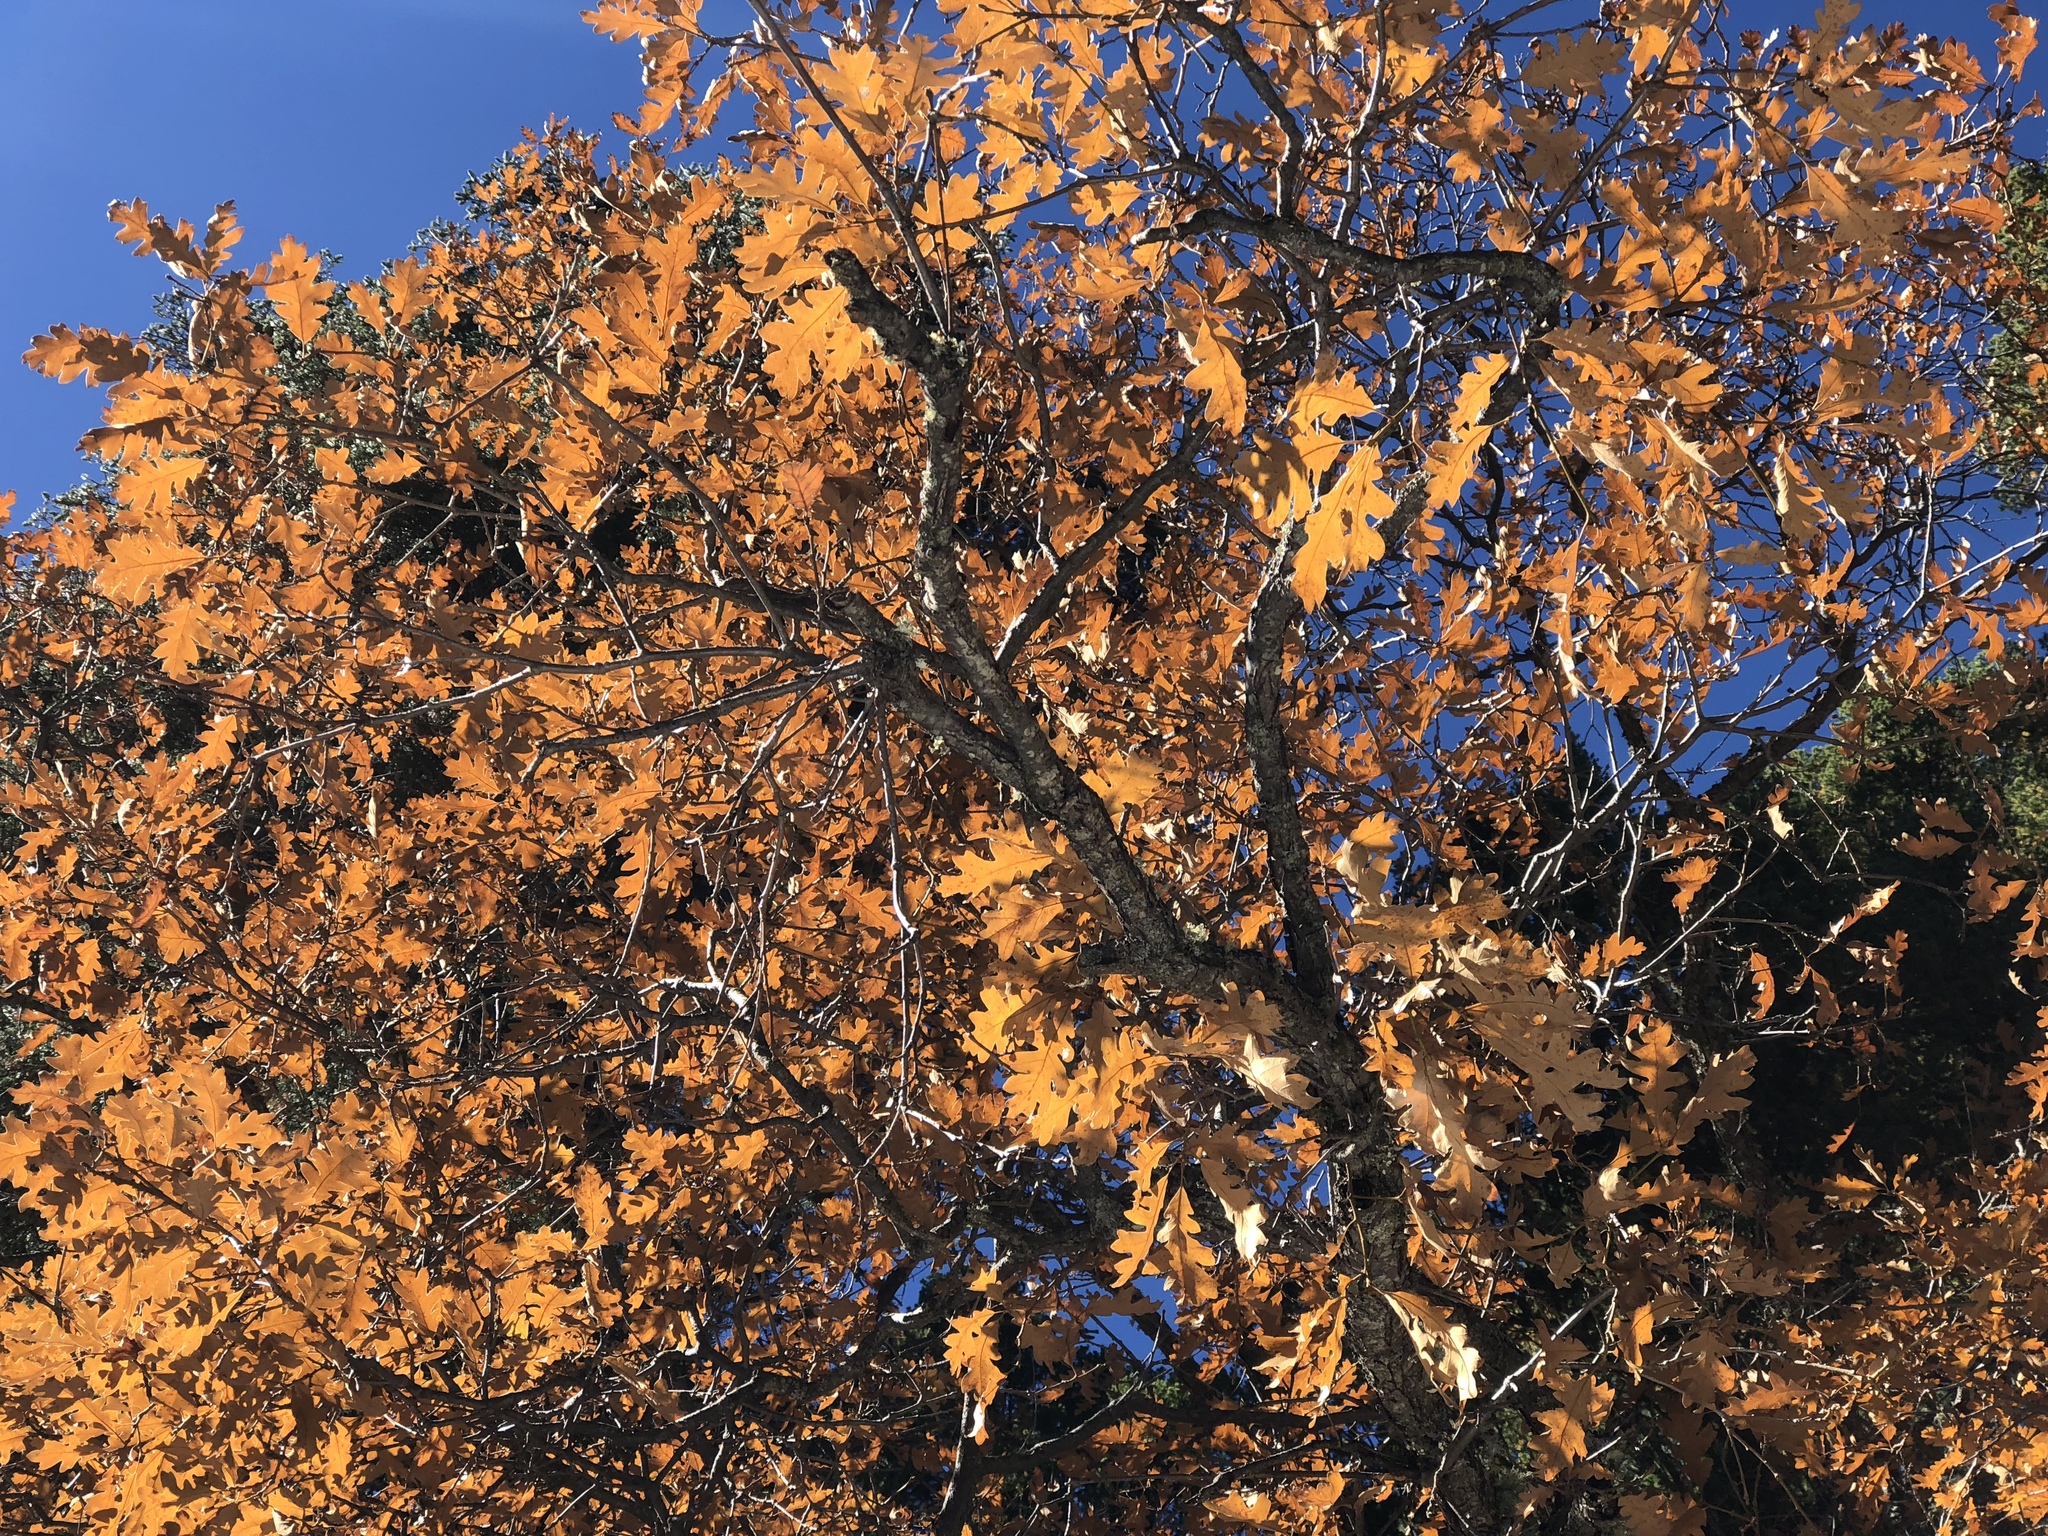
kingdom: Plantae
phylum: Tracheophyta
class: Magnoliopsida
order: Fagales
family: Fagaceae
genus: Quercus
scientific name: Quercus gambelii
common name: Gambel oak
